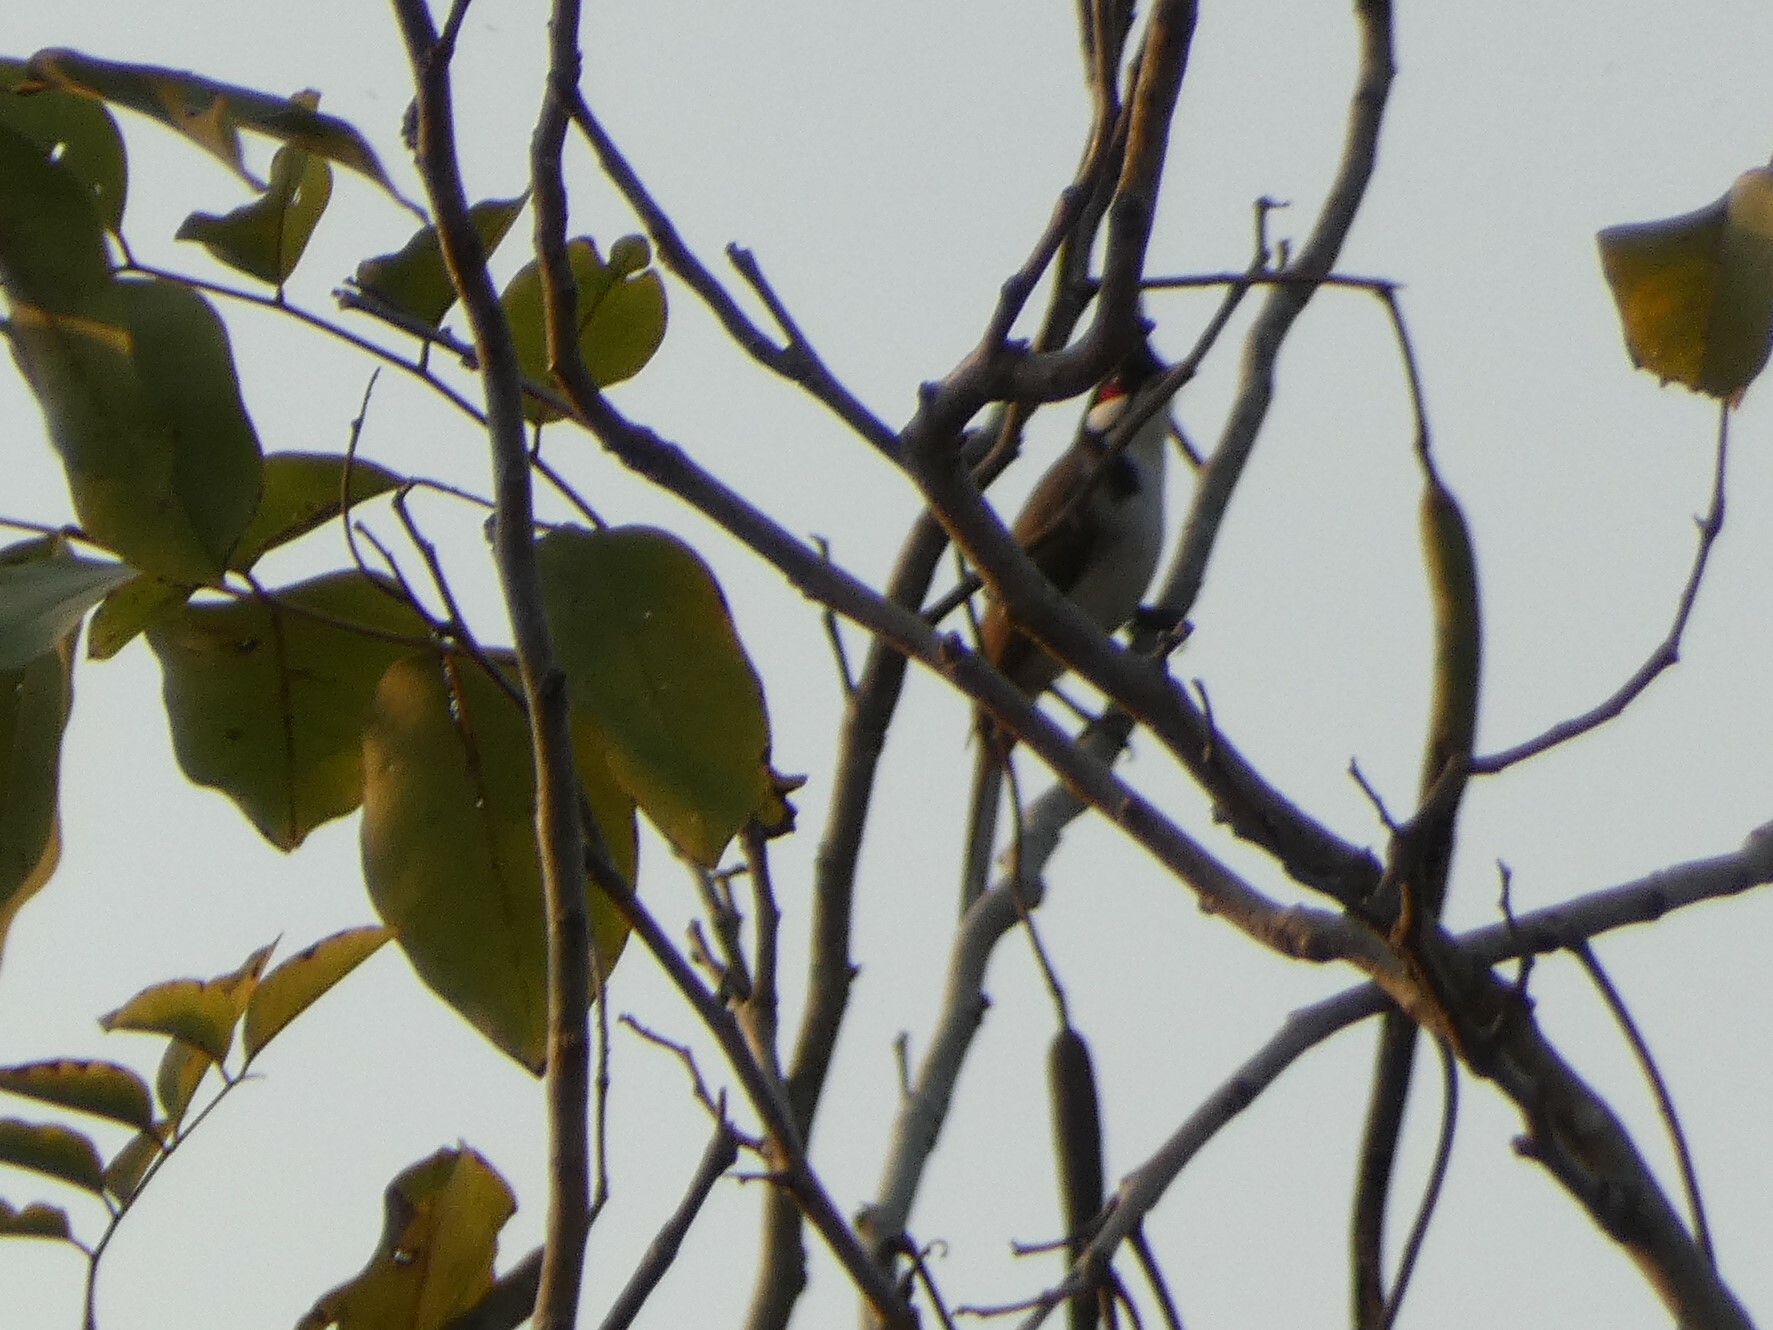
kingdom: Animalia
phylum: Chordata
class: Aves
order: Passeriformes
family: Pycnonotidae
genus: Pycnonotus
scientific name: Pycnonotus jocosus
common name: Red-whiskered bulbul
